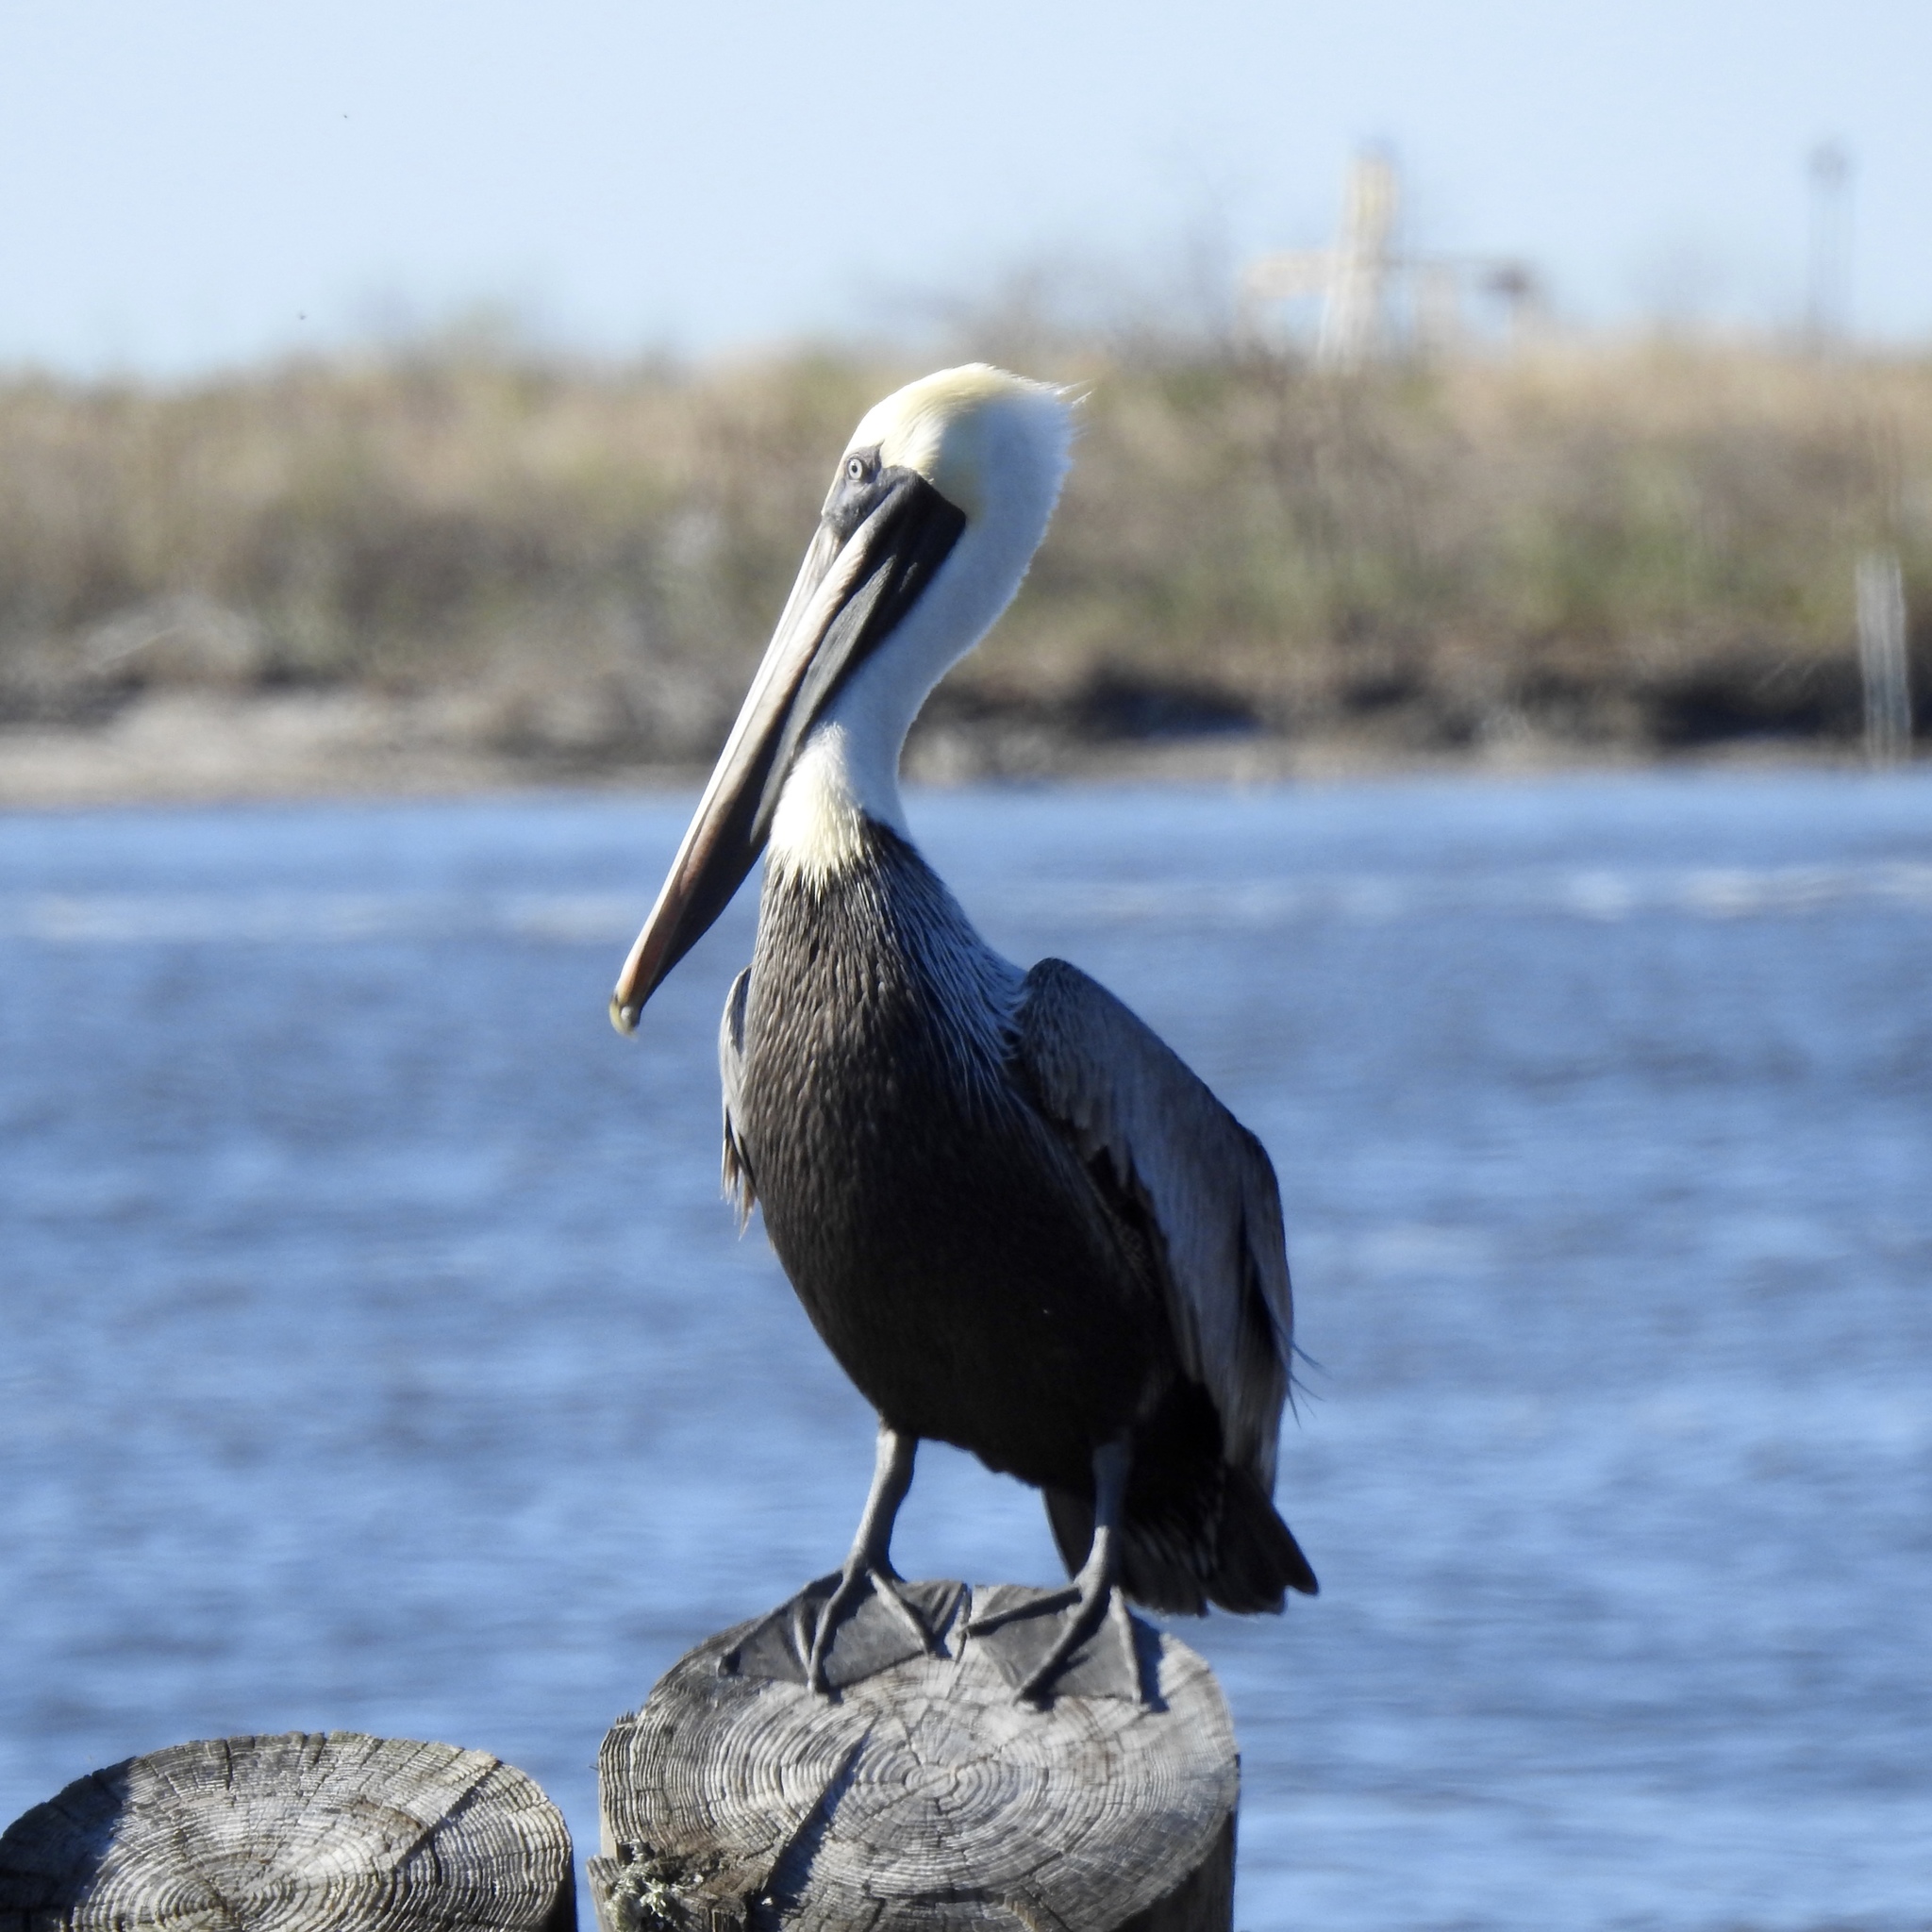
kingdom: Animalia
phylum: Chordata
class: Aves
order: Pelecaniformes
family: Pelecanidae
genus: Pelecanus
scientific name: Pelecanus occidentalis
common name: Brown pelican
